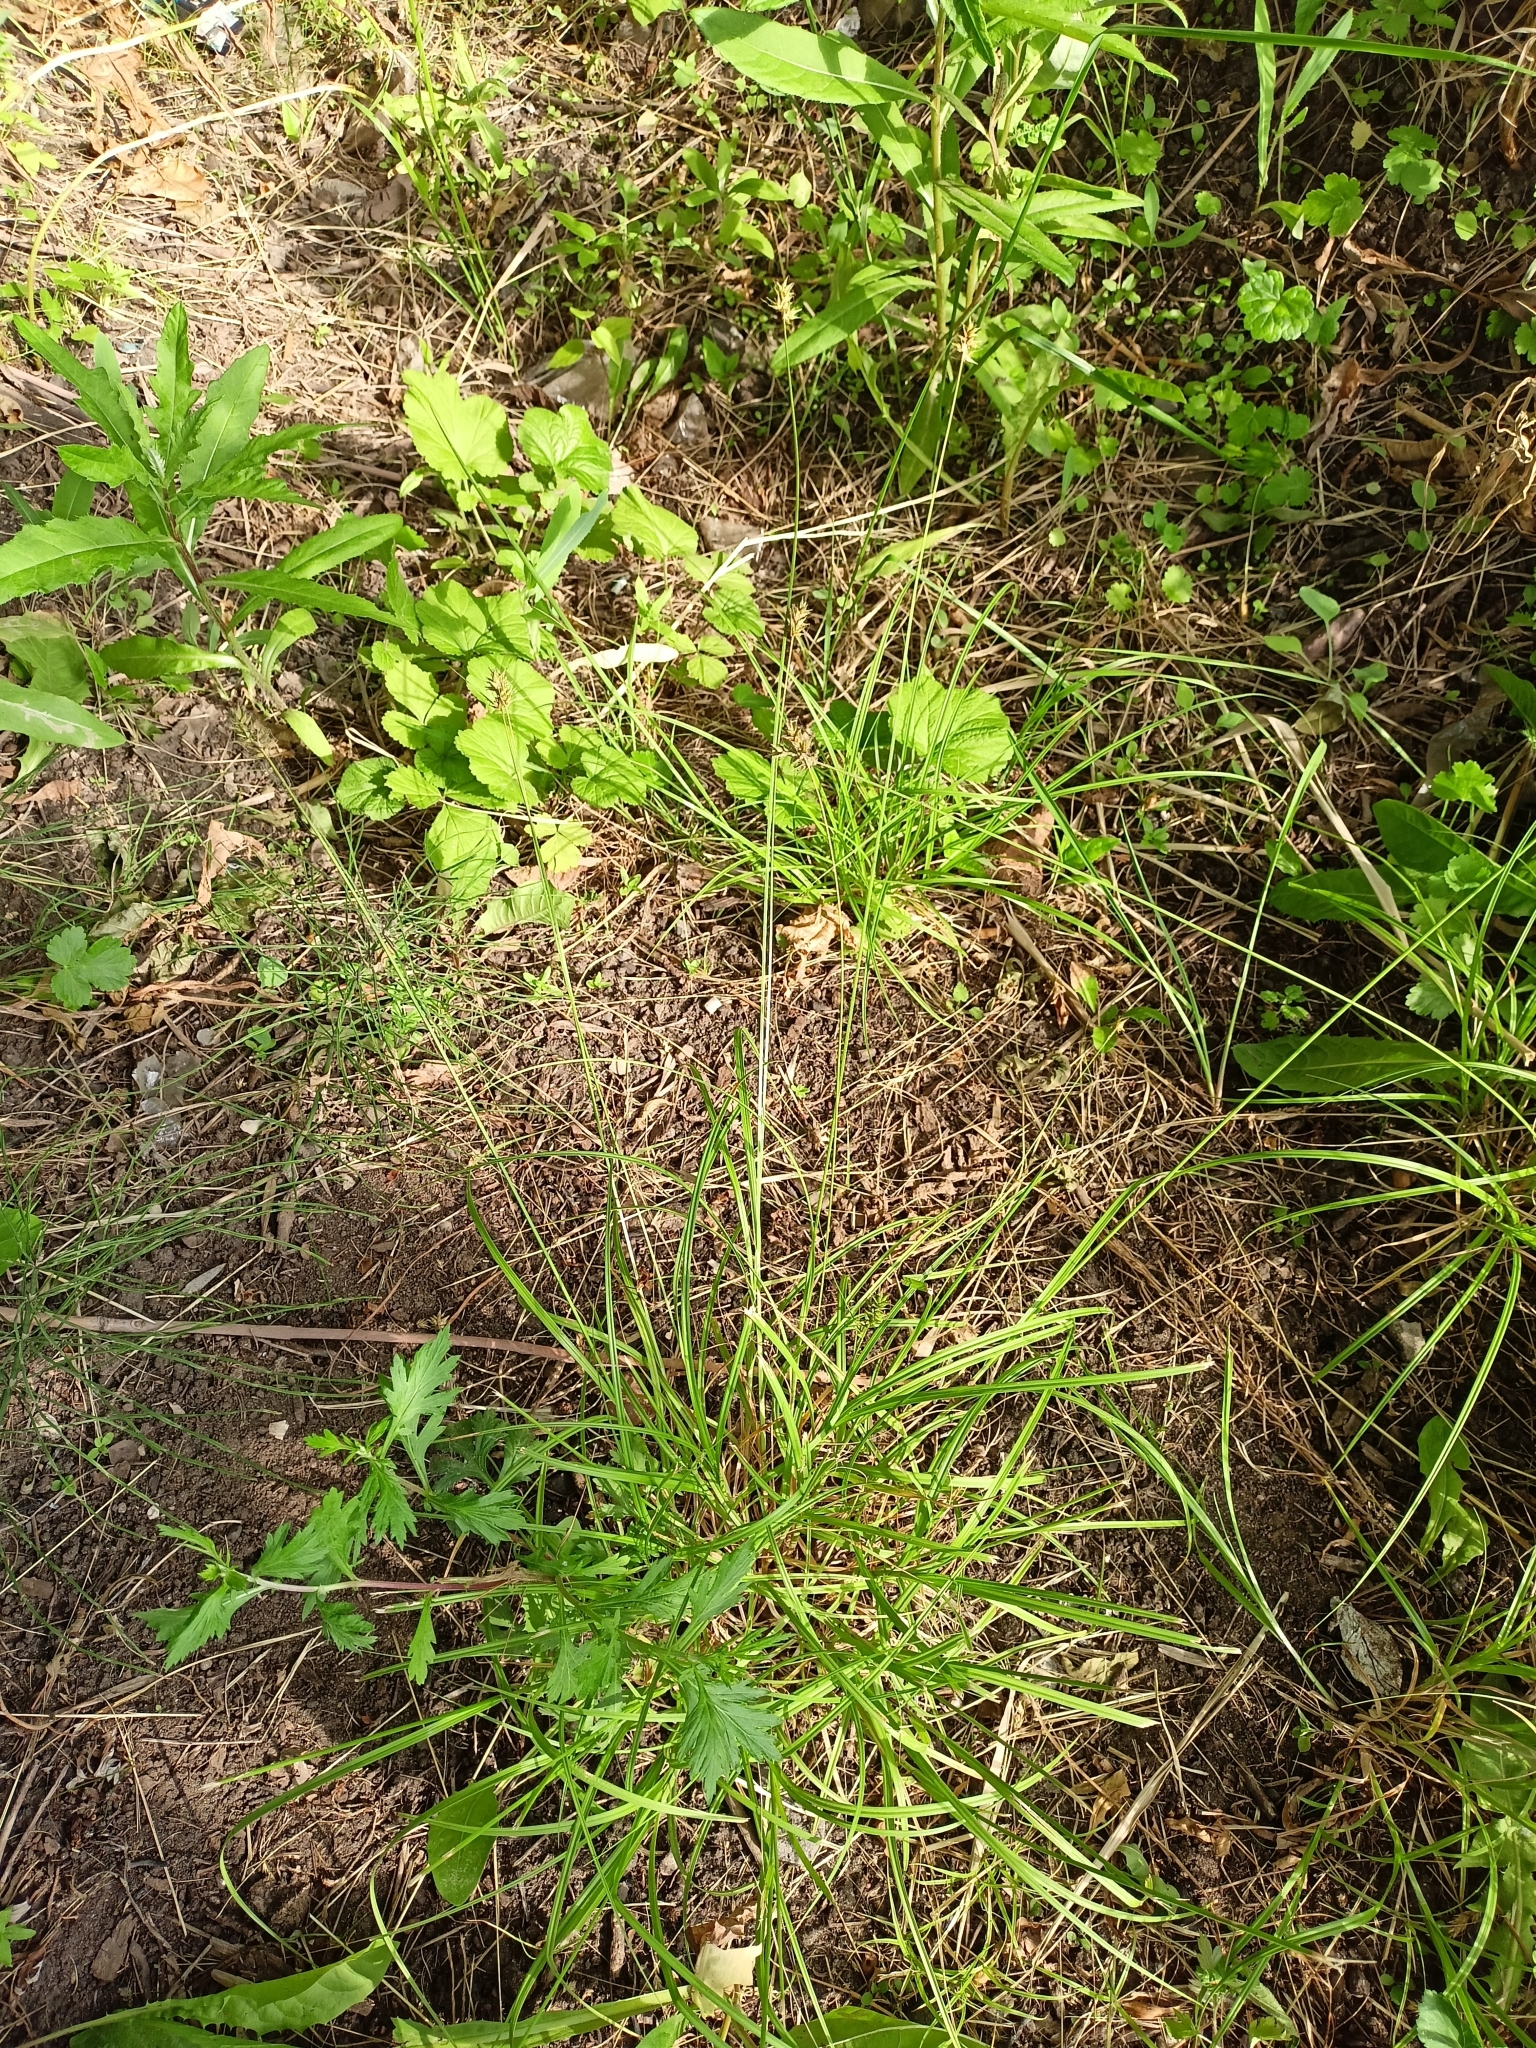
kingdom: Plantae
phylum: Tracheophyta
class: Liliopsida
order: Poales
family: Cyperaceae
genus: Carex
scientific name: Carex spicata
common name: Spiked sedge
